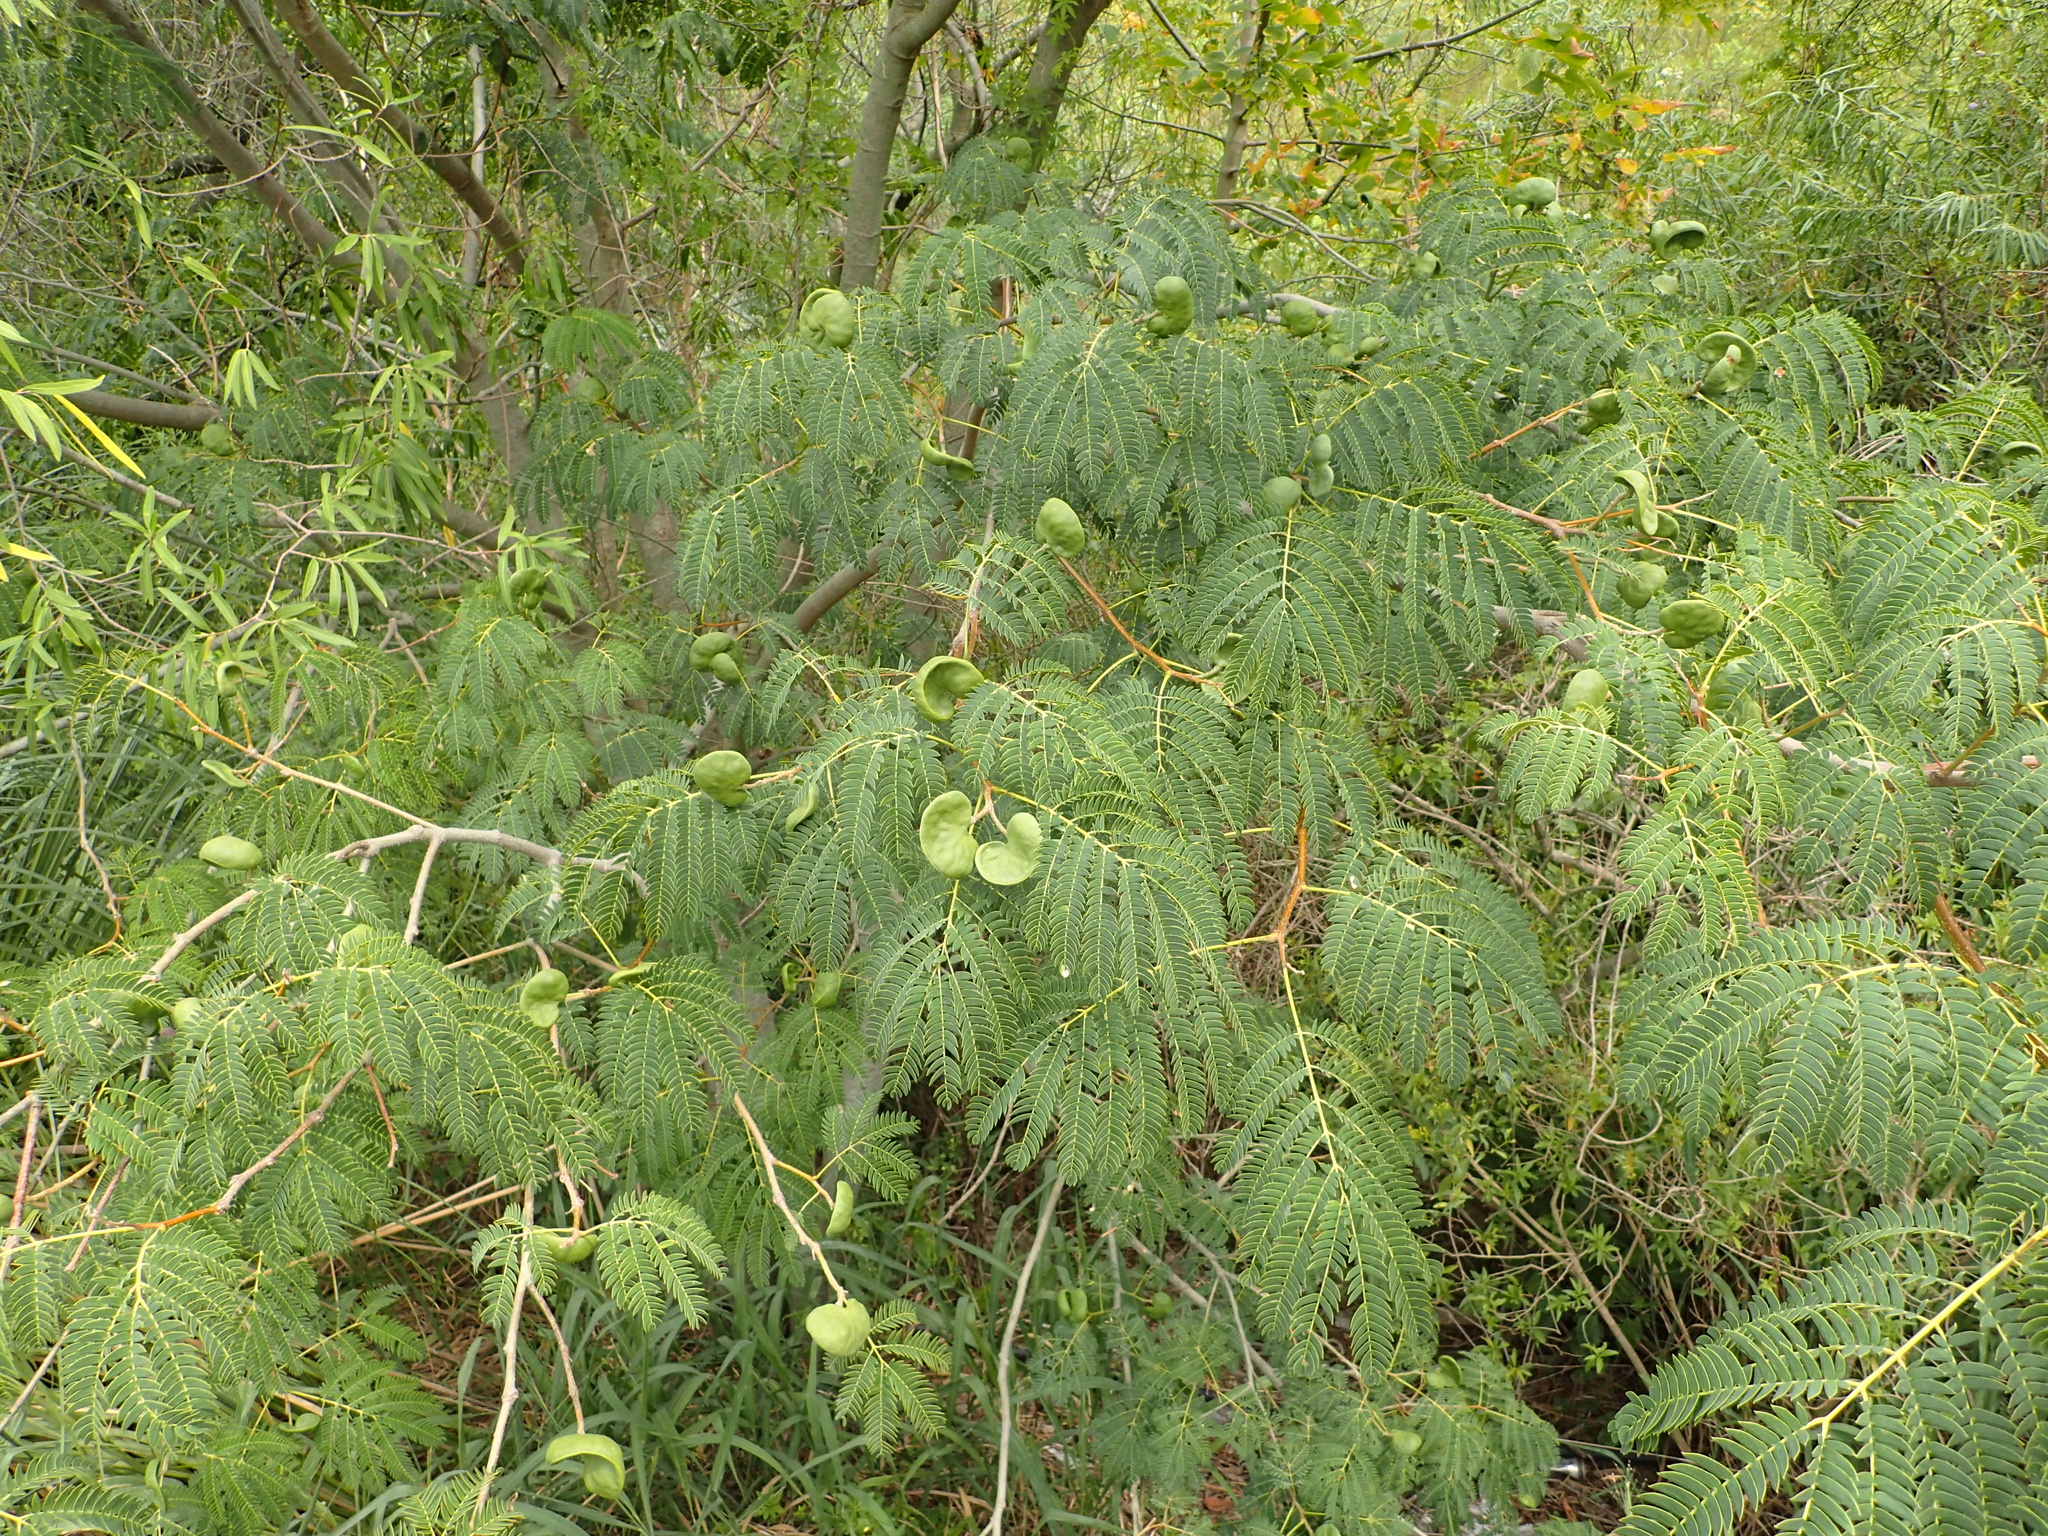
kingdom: Plantae
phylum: Tracheophyta
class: Magnoliopsida
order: Fabales
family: Fabaceae
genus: Enterolobium
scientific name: Enterolobium contortisiliquum
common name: Pacara earpod tree
